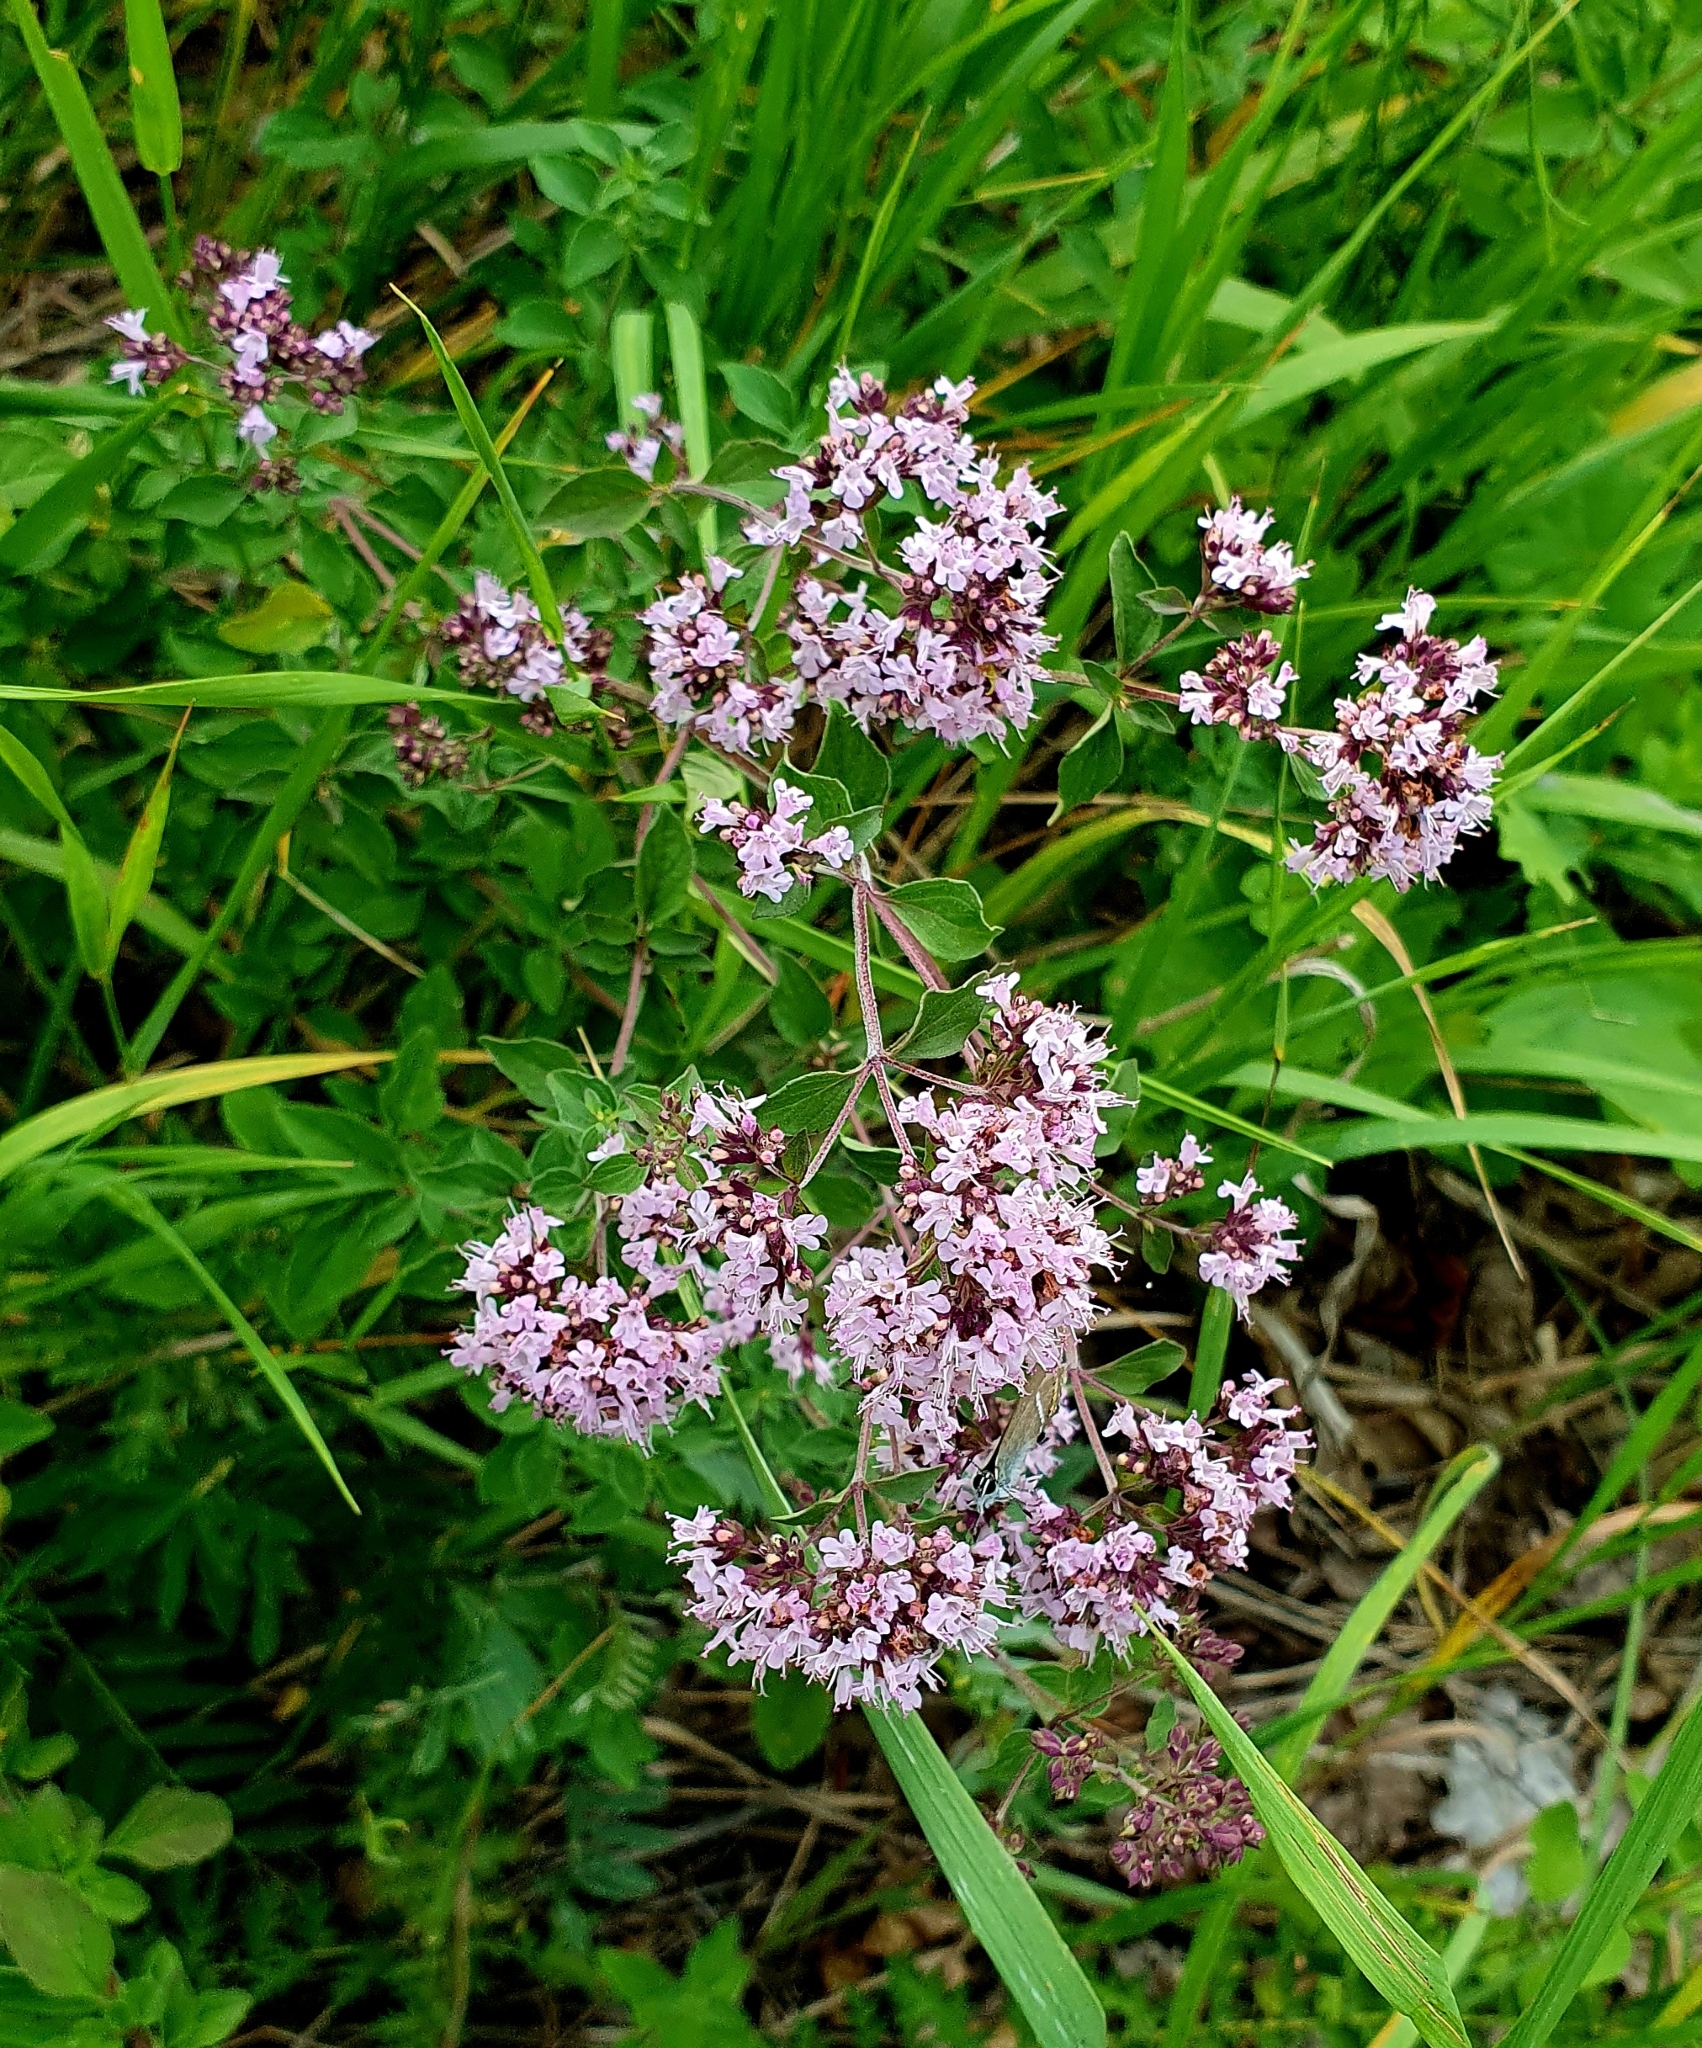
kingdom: Plantae
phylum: Tracheophyta
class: Magnoliopsida
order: Lamiales
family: Lamiaceae
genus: Origanum
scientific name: Origanum vulgare
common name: Wild marjoram
